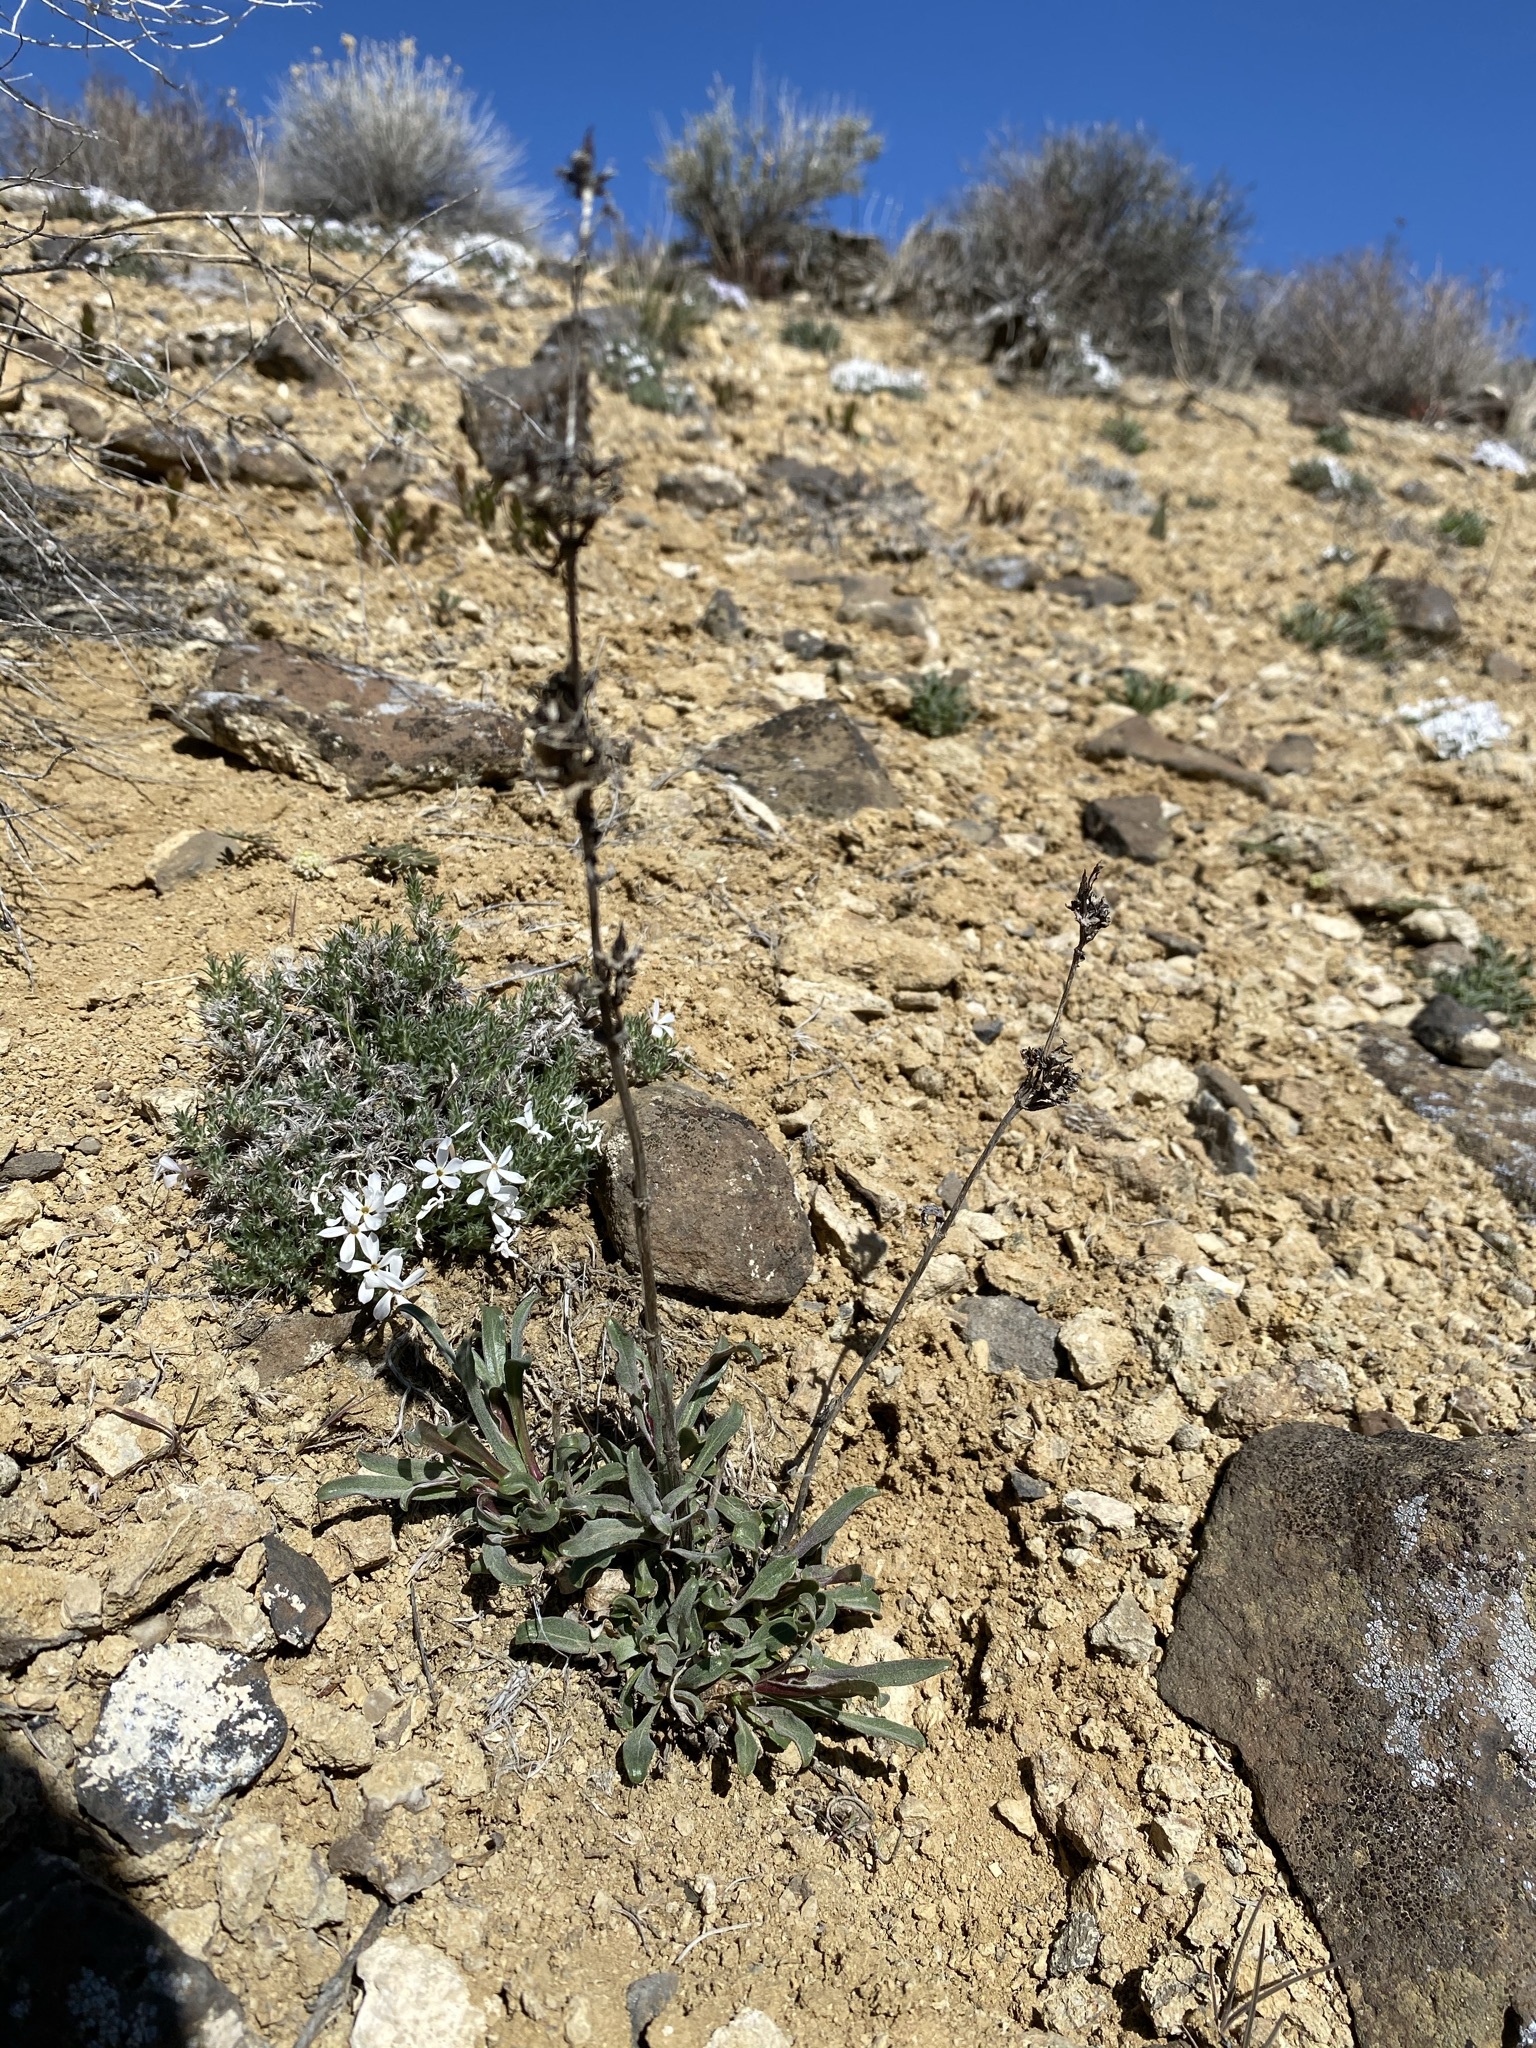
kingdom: Plantae
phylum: Tracheophyta
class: Magnoliopsida
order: Lamiales
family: Plantaginaceae
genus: Penstemon
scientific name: Penstemon miser
